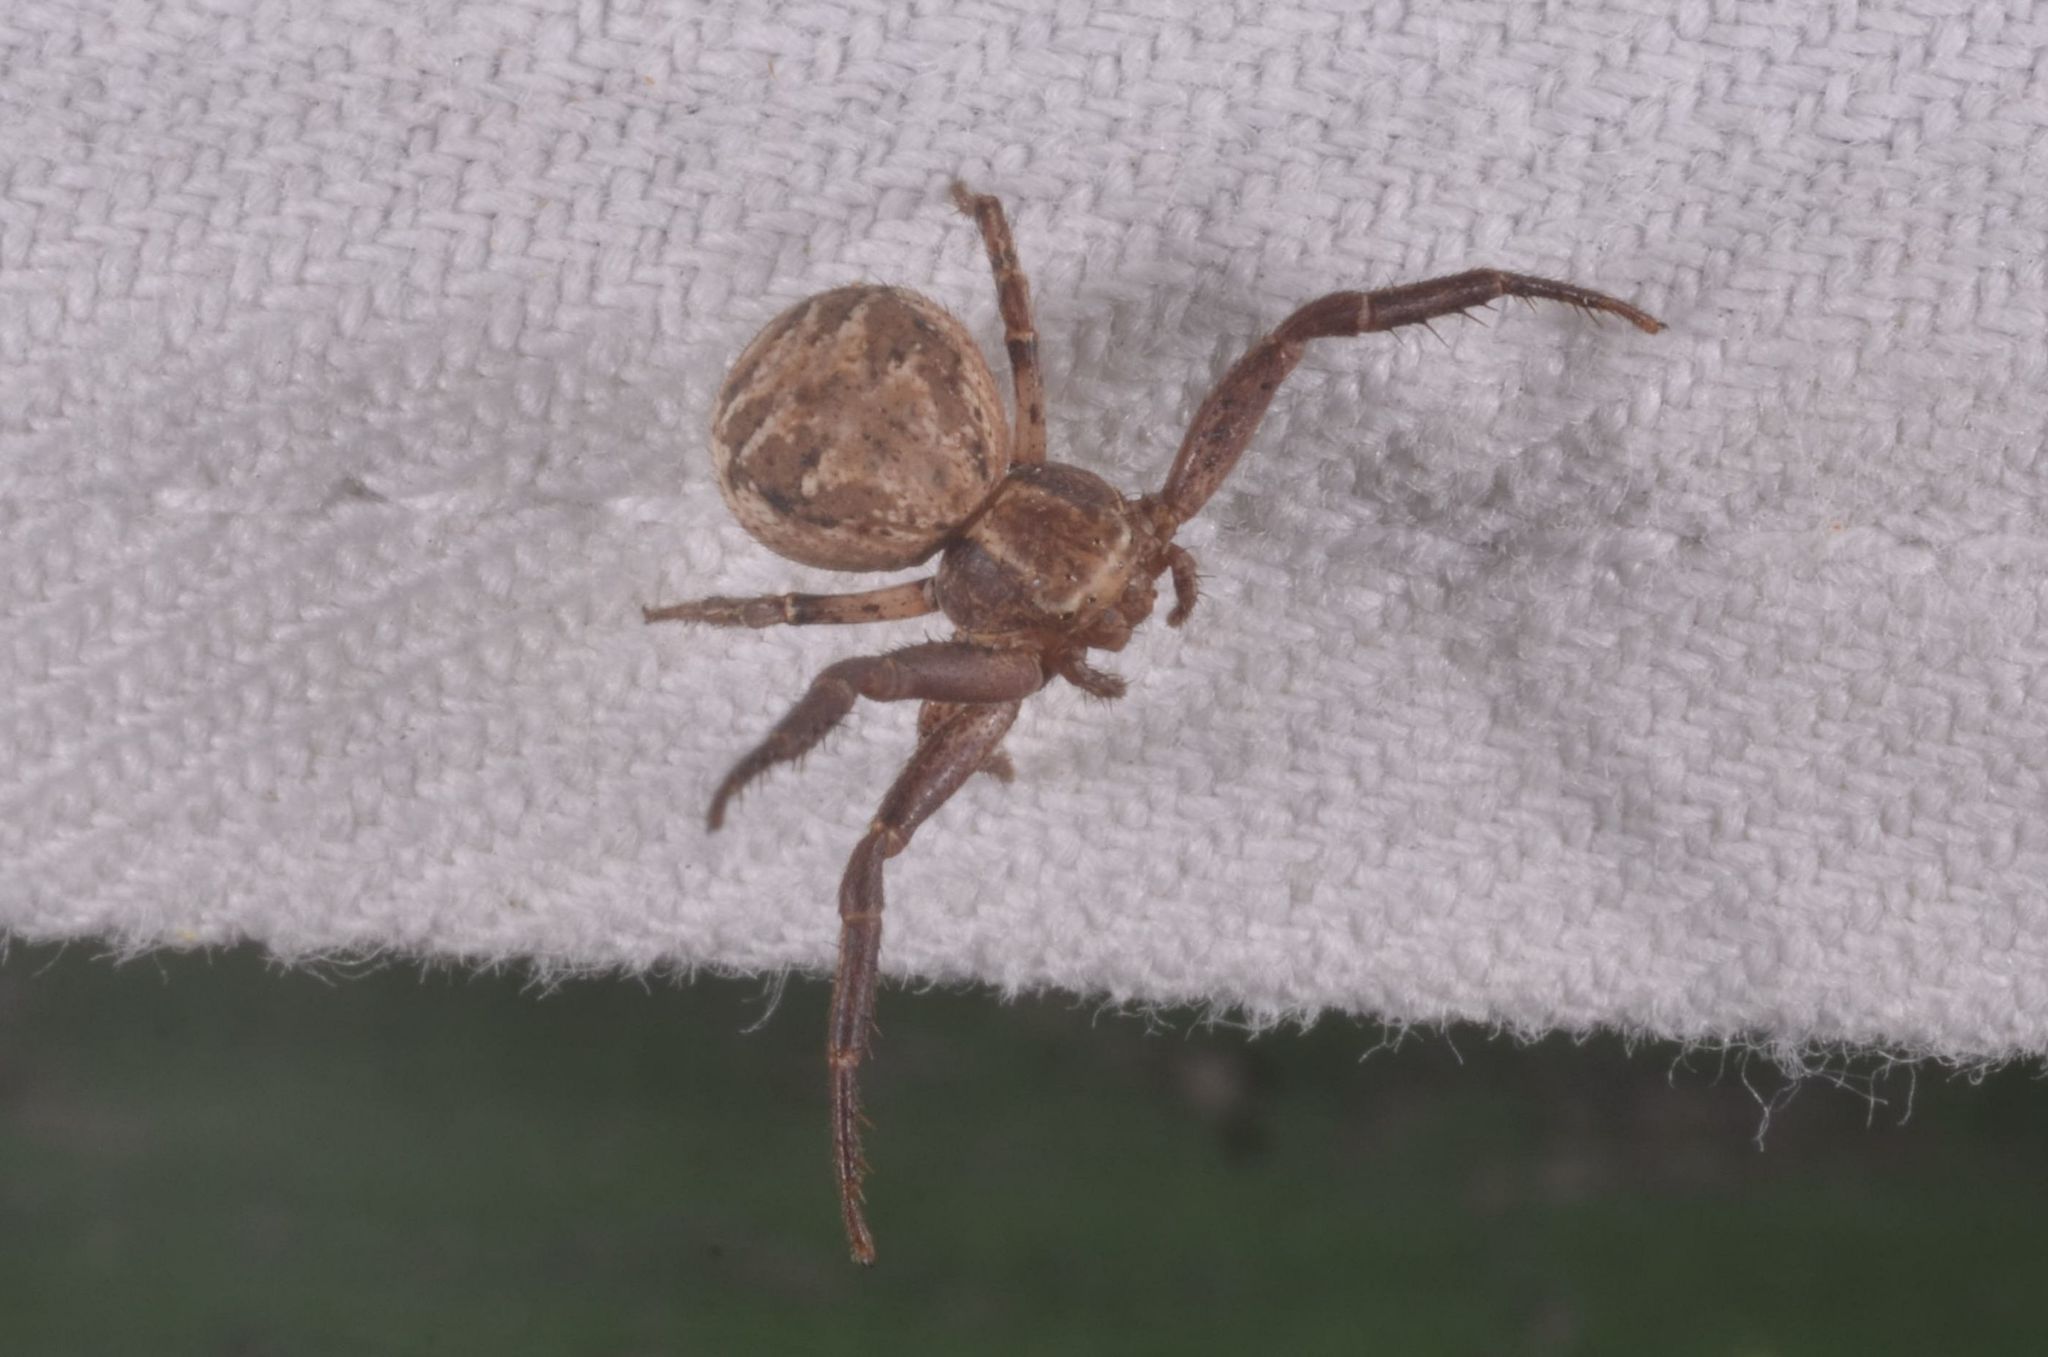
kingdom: Animalia
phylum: Arthropoda
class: Arachnida
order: Araneae
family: Thomisidae
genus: Xysticus
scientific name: Xysticus
